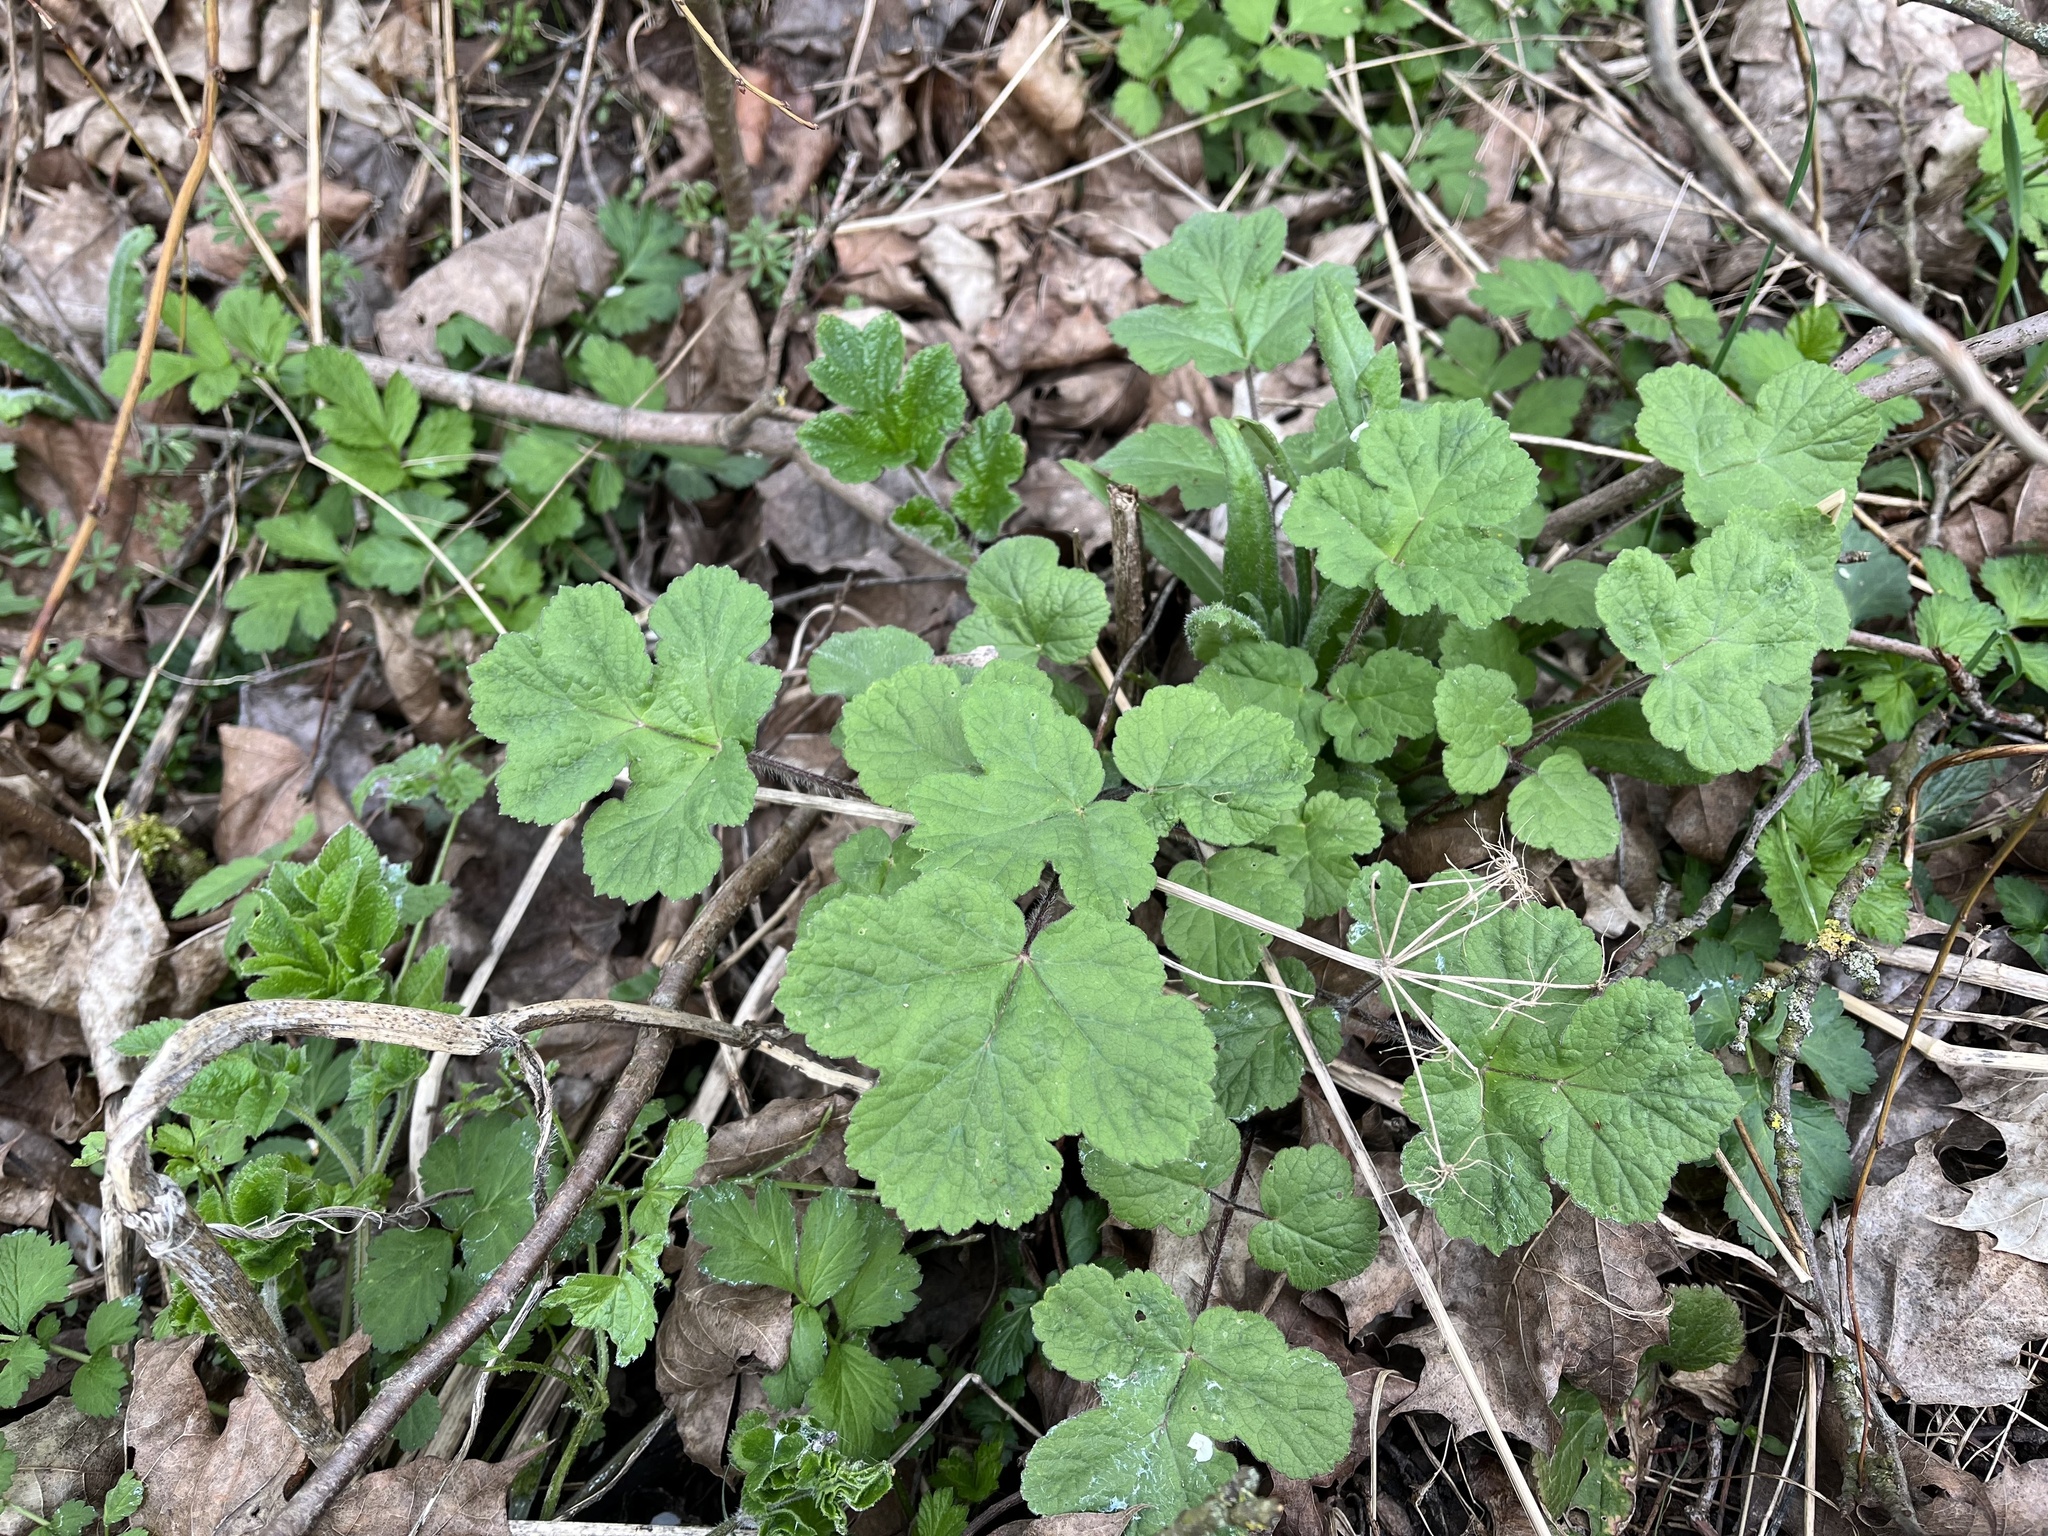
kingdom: Plantae
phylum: Tracheophyta
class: Magnoliopsida
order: Apiales
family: Apiaceae
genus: Heracleum
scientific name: Heracleum sphondylium
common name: Hogweed
